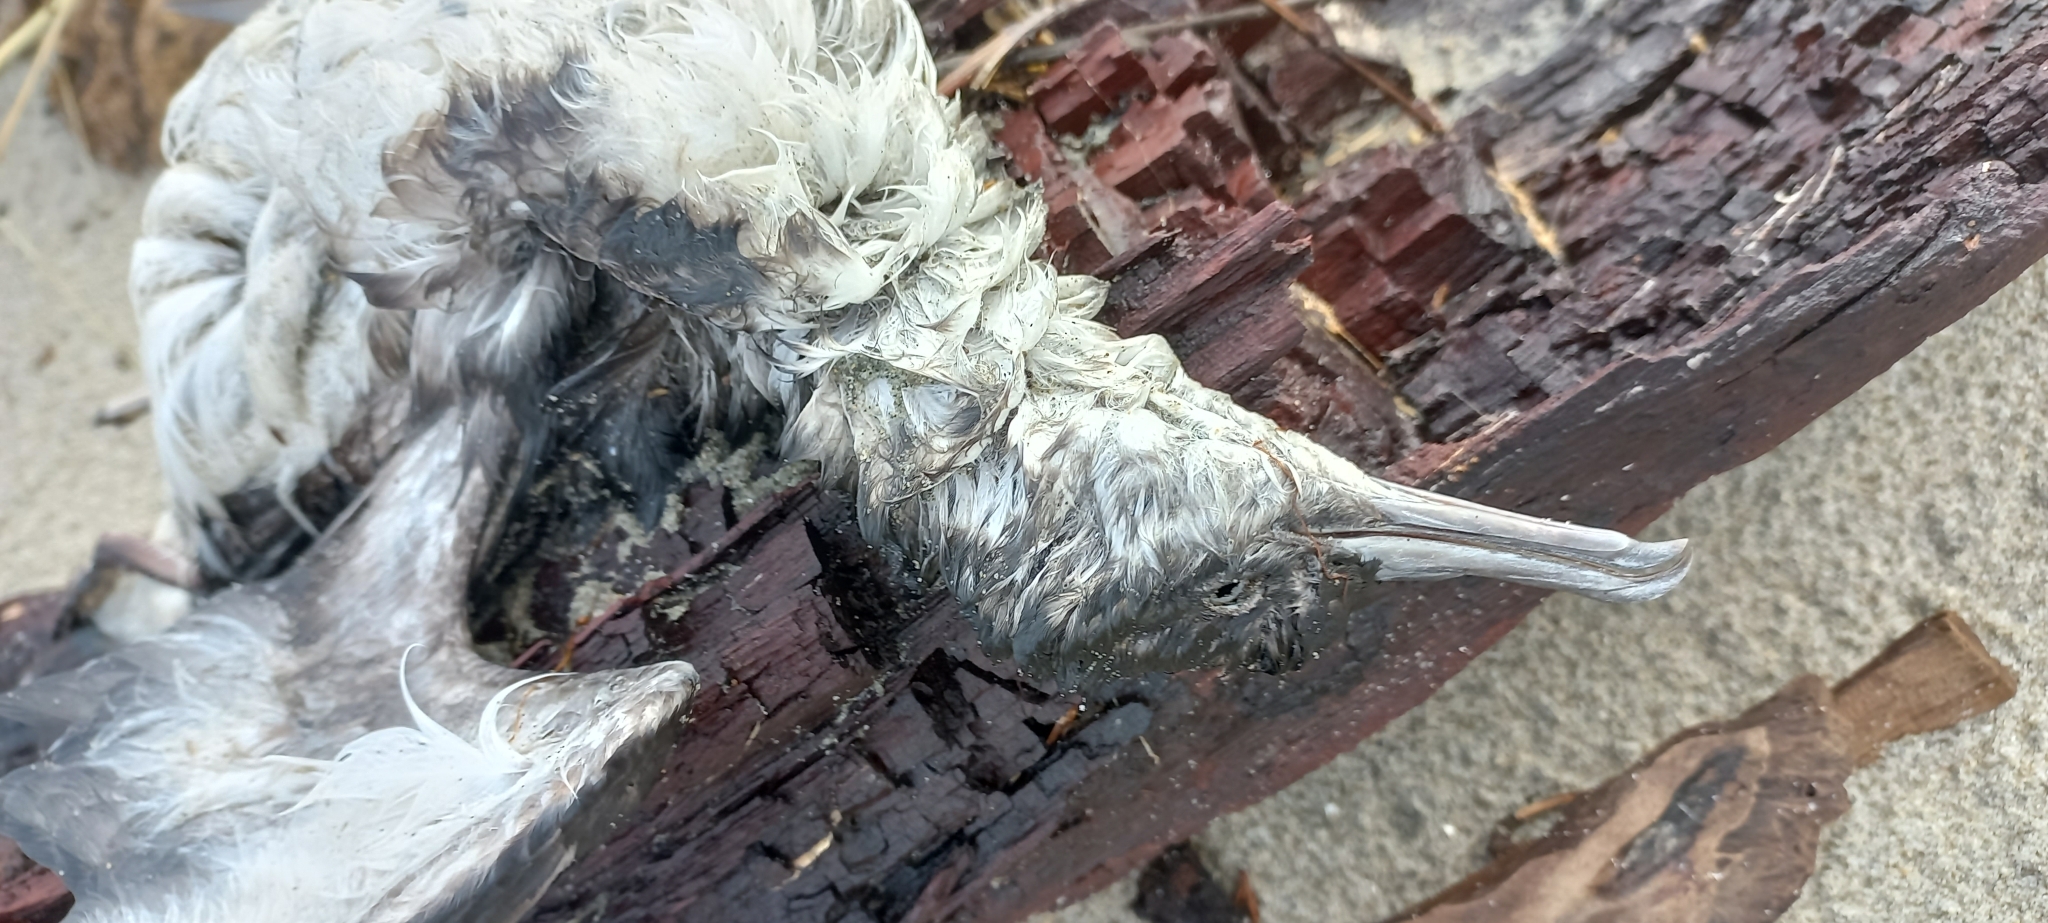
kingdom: Animalia
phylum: Chordata
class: Aves
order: Procellariiformes
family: Procellariidae
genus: Puffinus
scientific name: Puffinus gavia
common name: Fluttering shearwater
